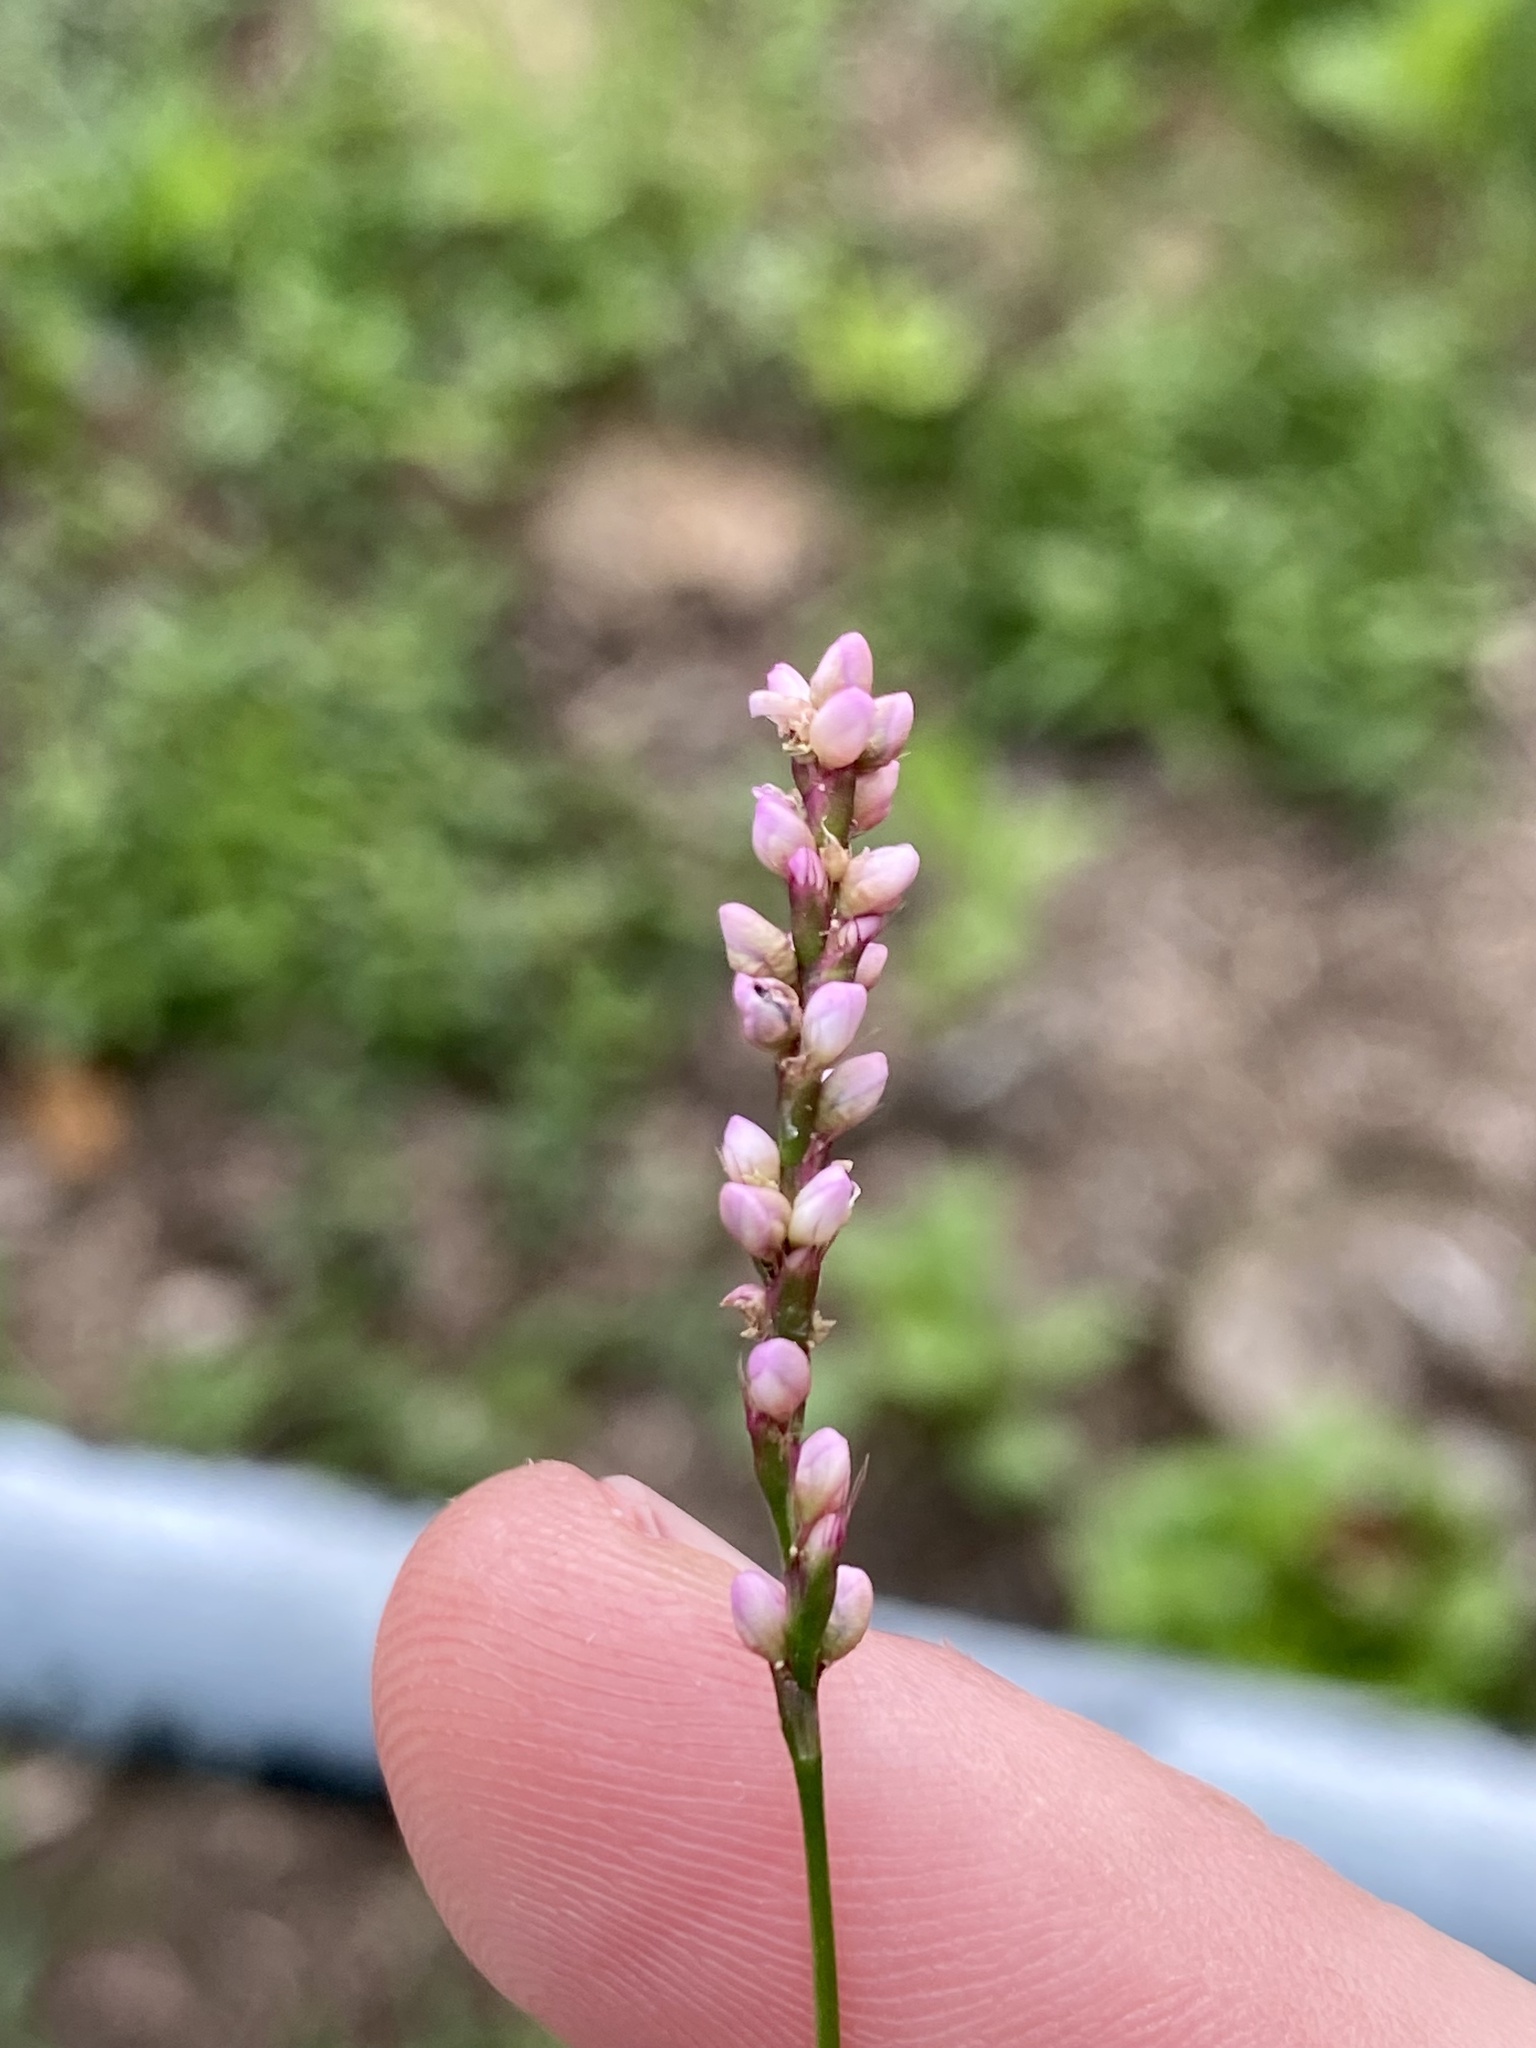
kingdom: Plantae
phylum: Tracheophyta
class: Magnoliopsida
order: Caryophyllales
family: Polygonaceae
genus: Persicaria
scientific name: Persicaria longiseta
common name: Bristly lady's-thumb
